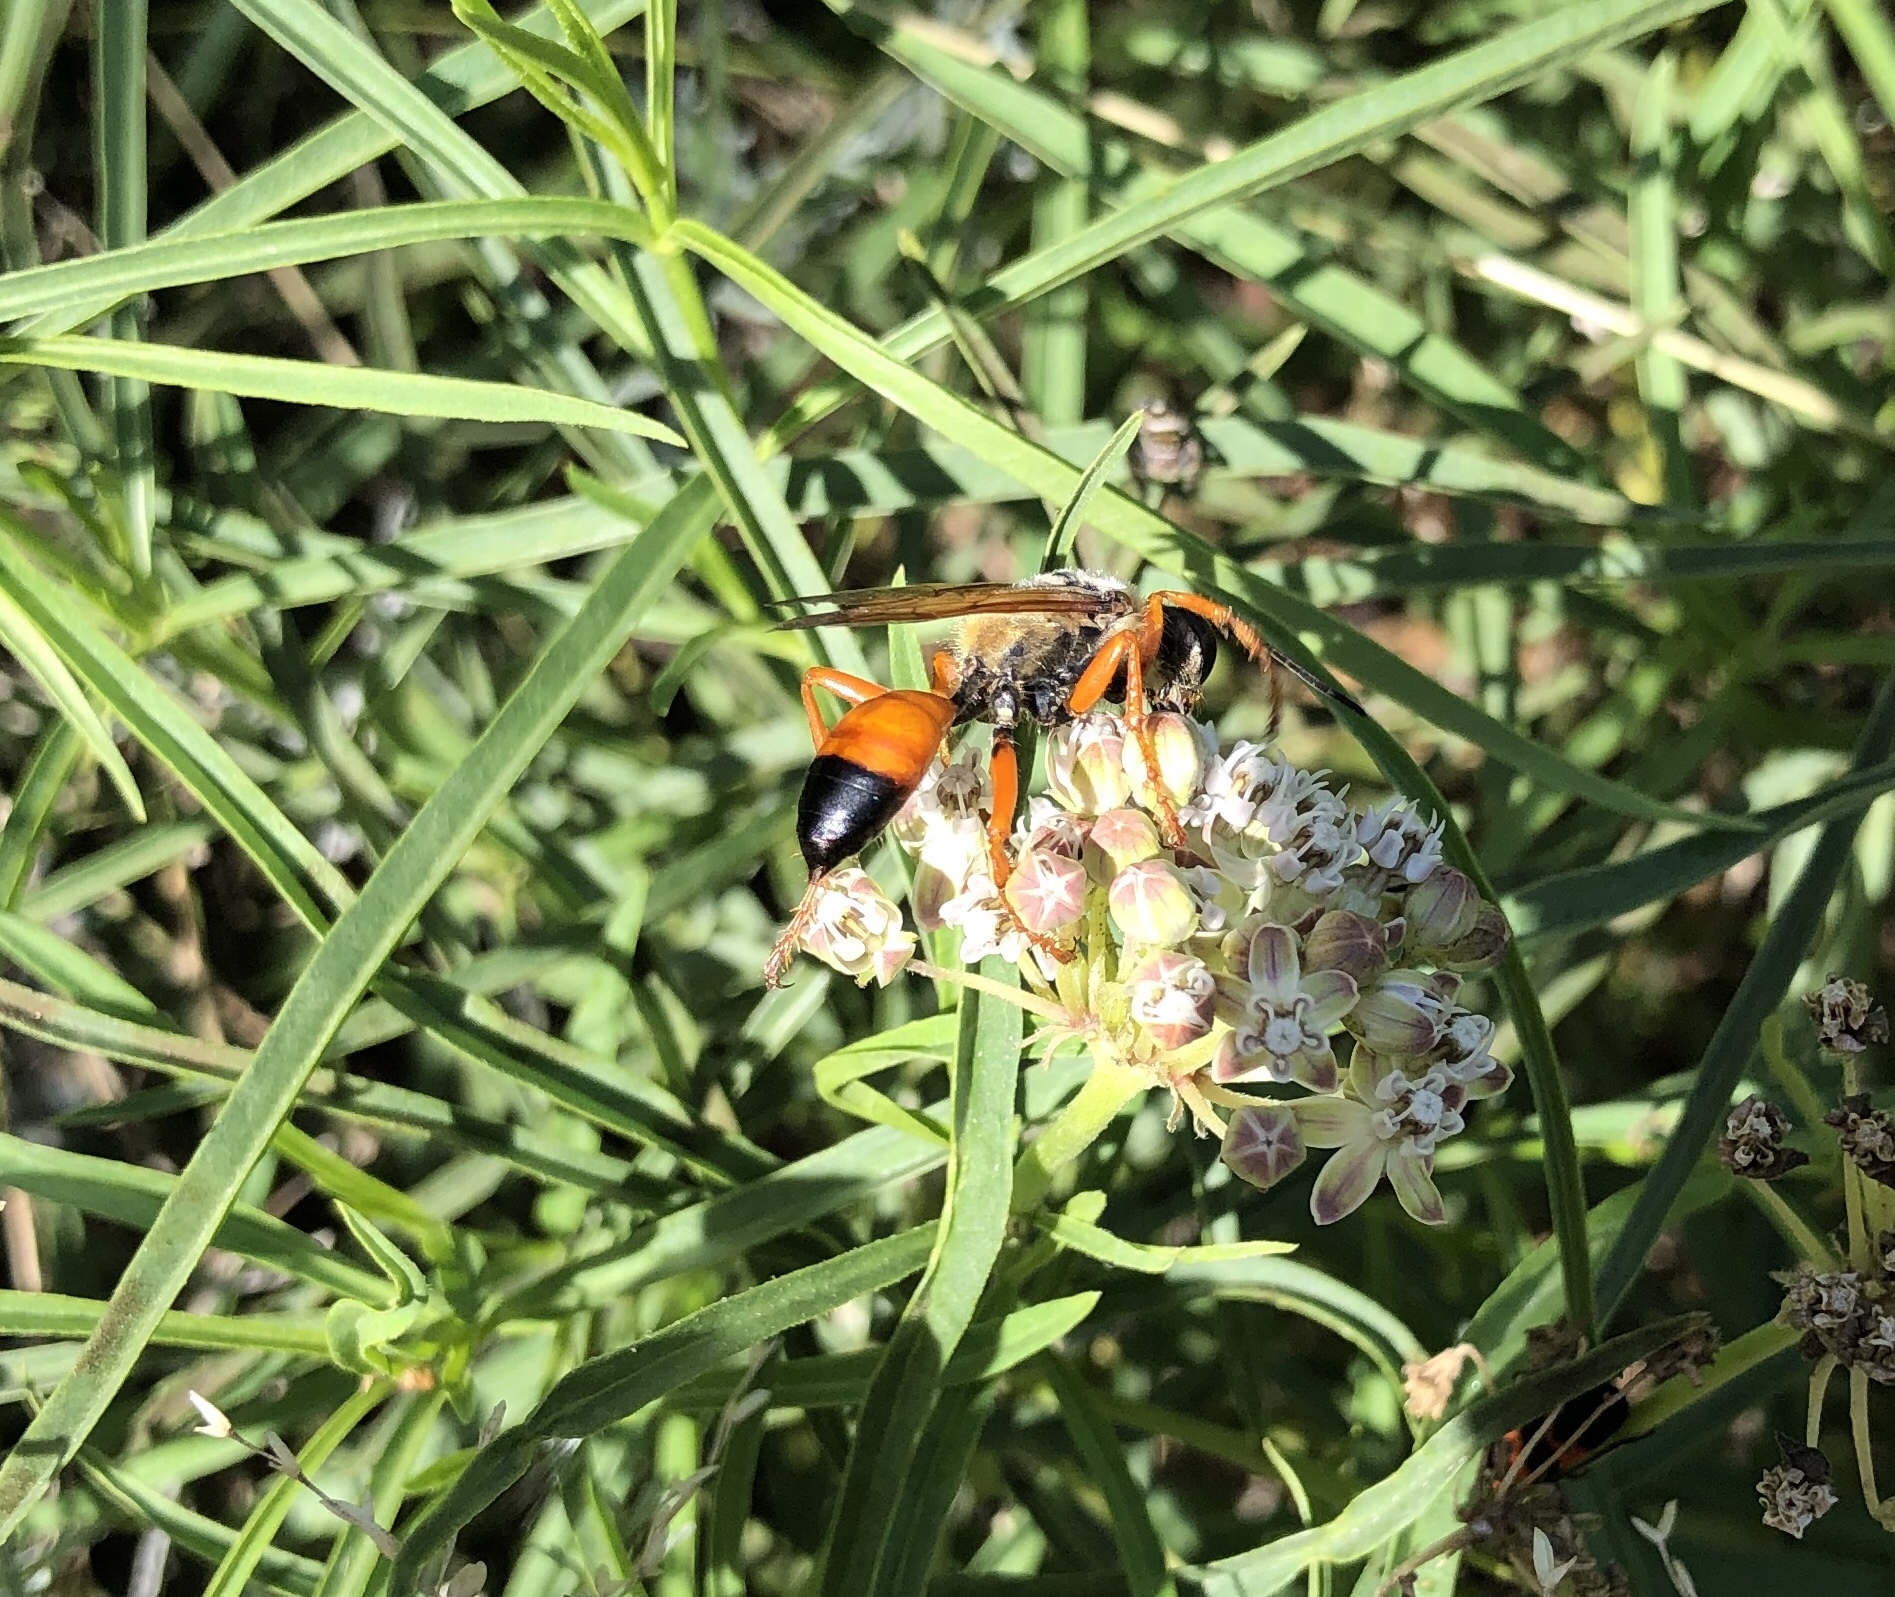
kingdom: Animalia
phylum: Arthropoda
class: Insecta
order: Hymenoptera
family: Sphecidae
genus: Sphex
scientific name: Sphex ichneumoneus
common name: Great golden digger wasp
